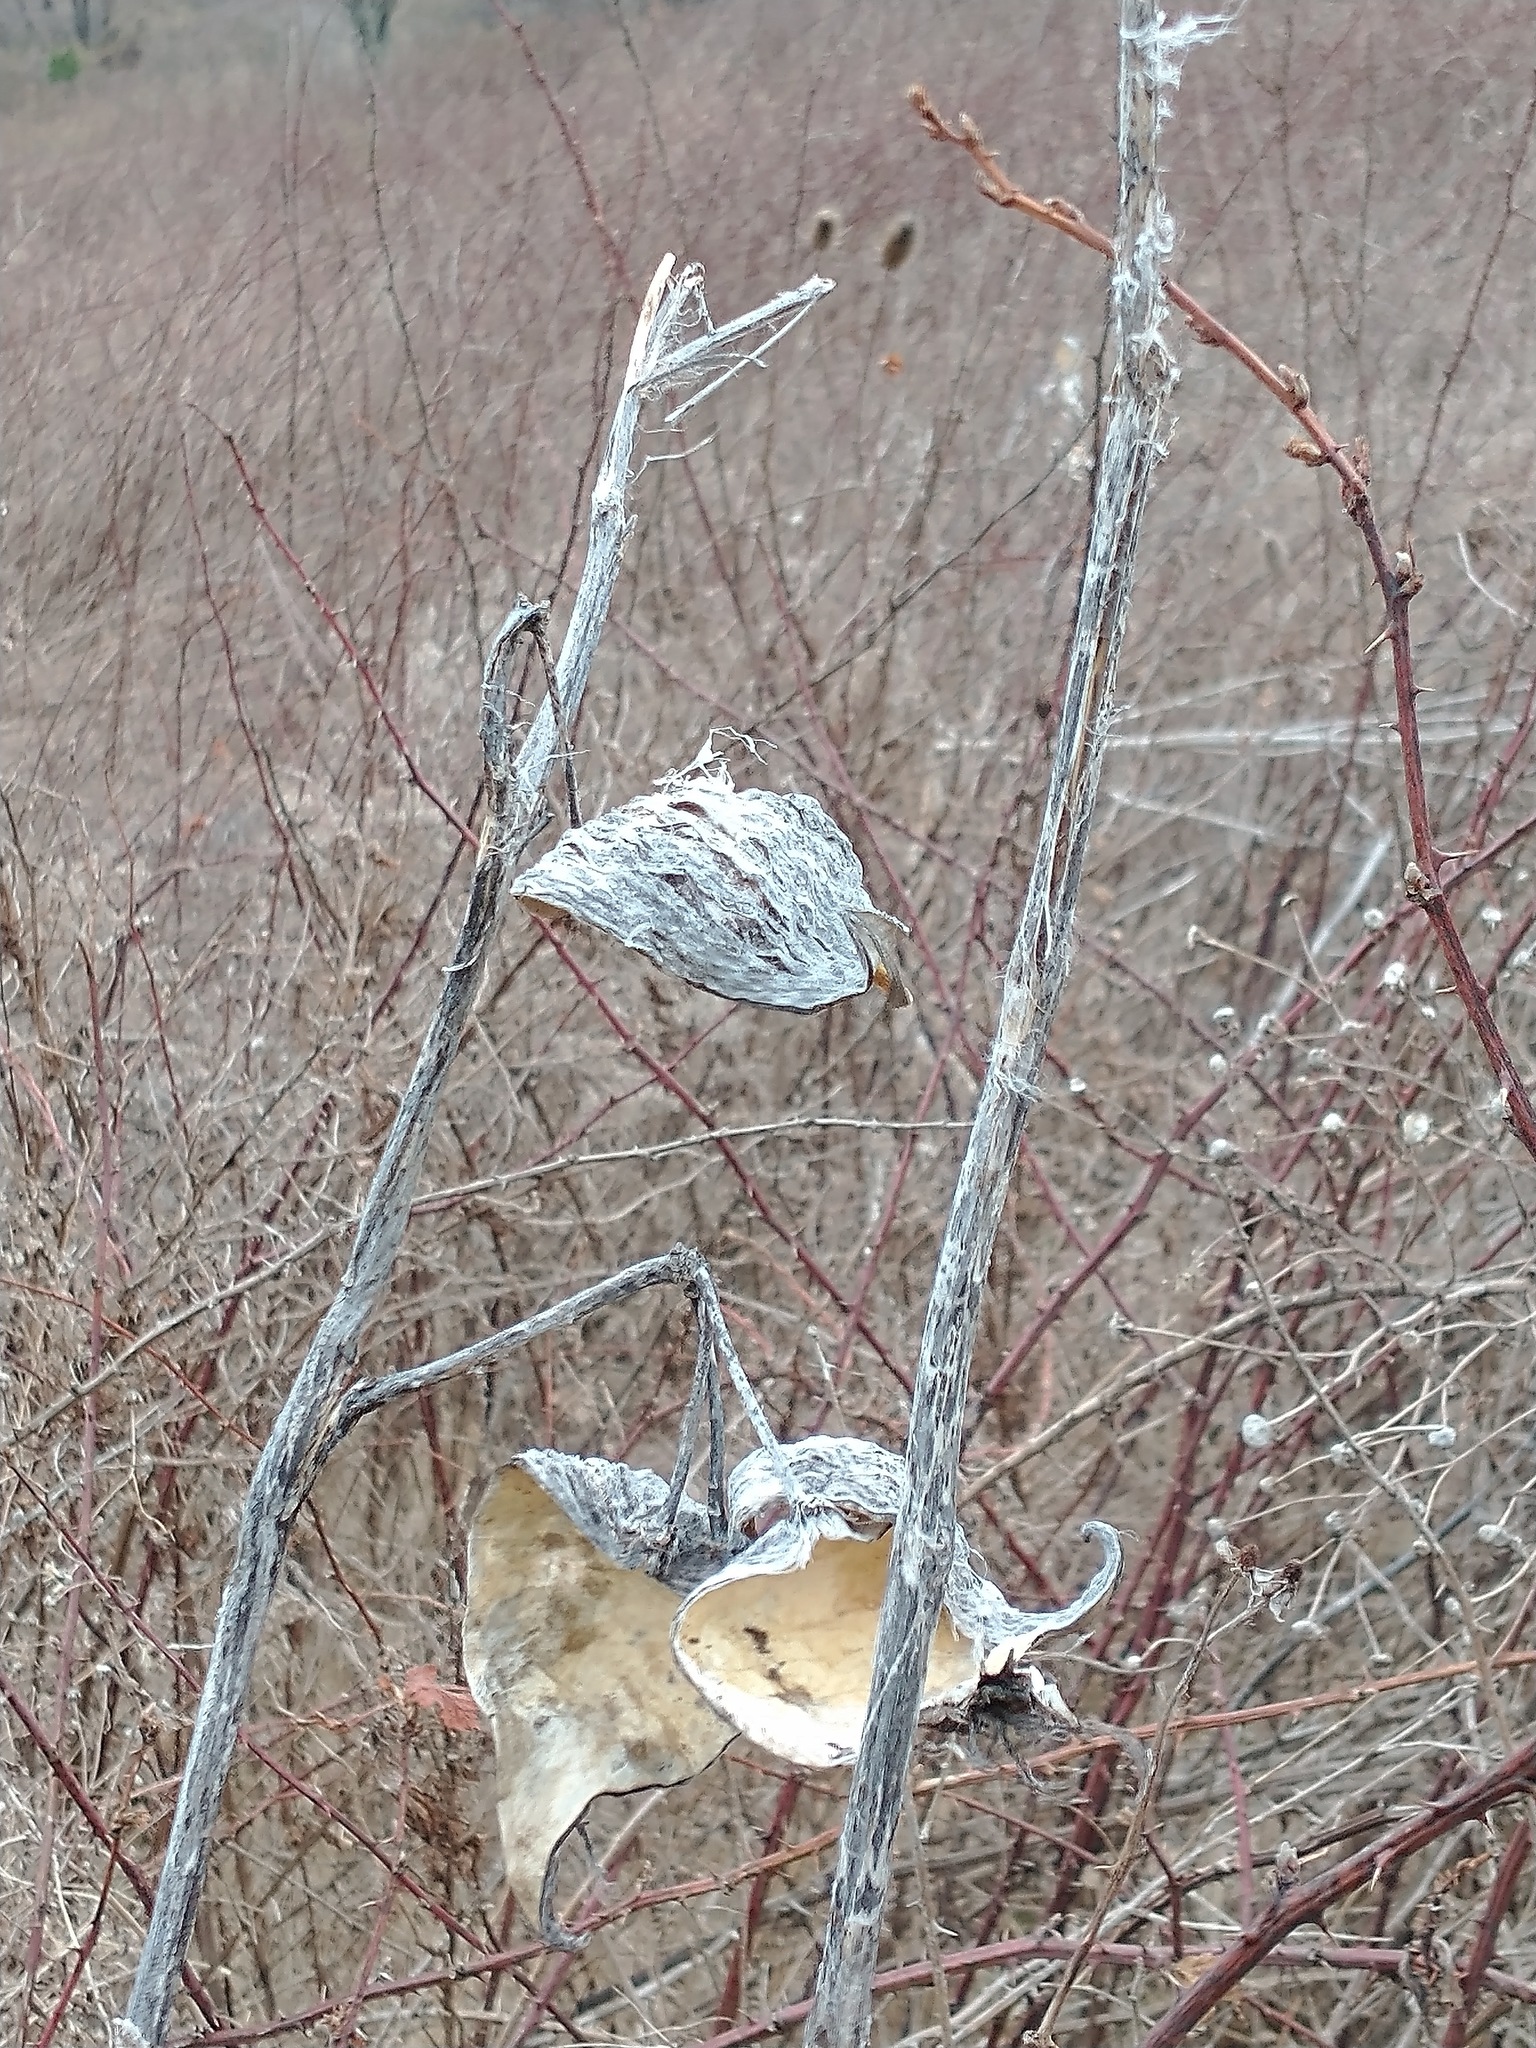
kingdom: Plantae
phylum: Tracheophyta
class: Magnoliopsida
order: Gentianales
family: Apocynaceae
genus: Asclepias
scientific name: Asclepias syriaca
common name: Common milkweed
